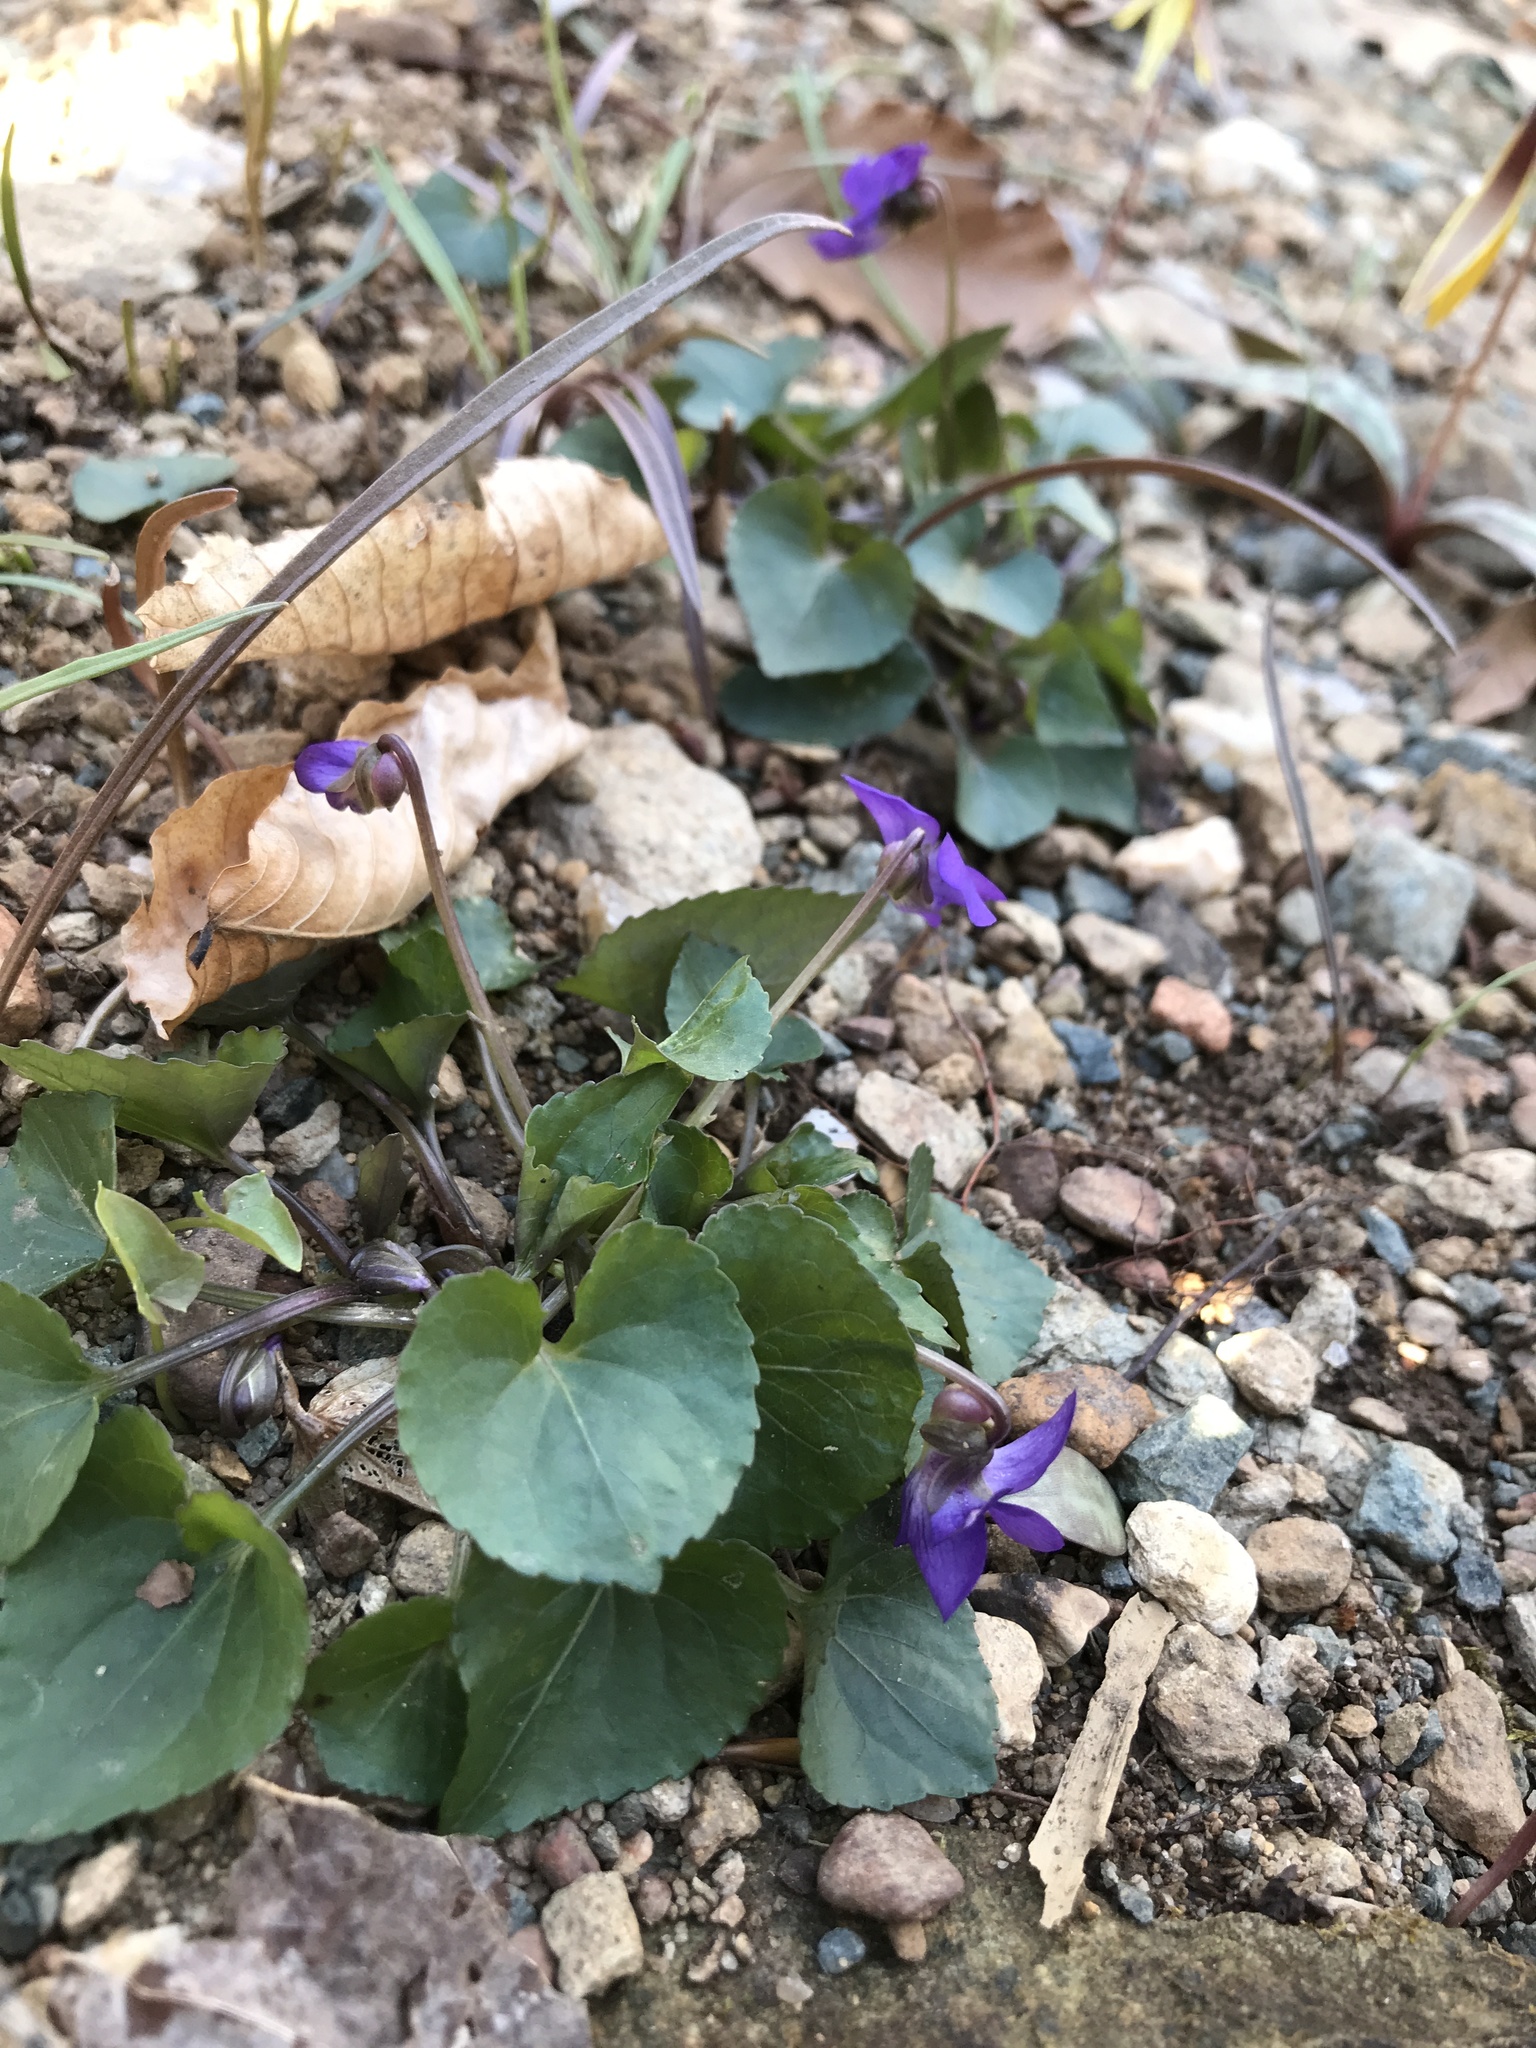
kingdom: Plantae
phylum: Tracheophyta
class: Magnoliopsida
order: Malpighiales
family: Violaceae
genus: Viola
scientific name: Viola sororia
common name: Dooryard violet
